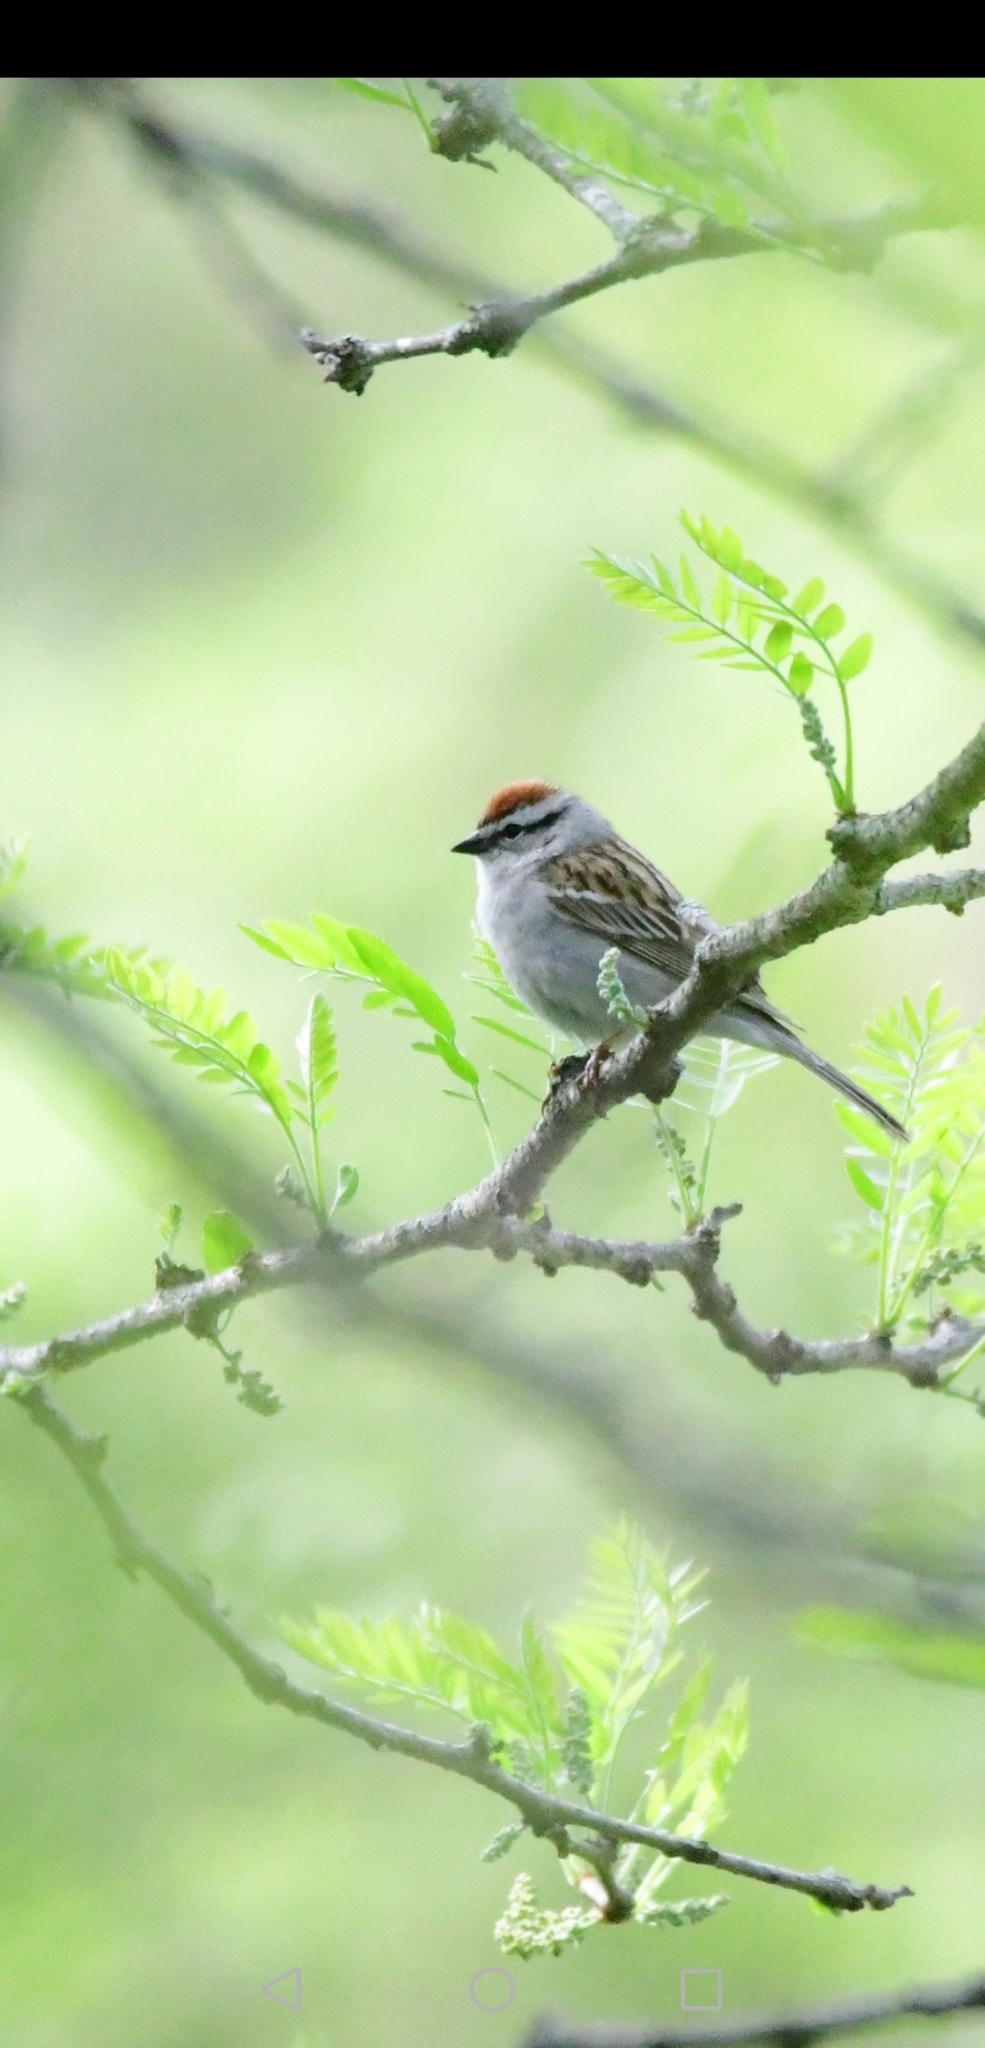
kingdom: Animalia
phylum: Chordata
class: Aves
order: Passeriformes
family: Passerellidae
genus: Spizella
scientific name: Spizella passerina
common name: Chipping sparrow
